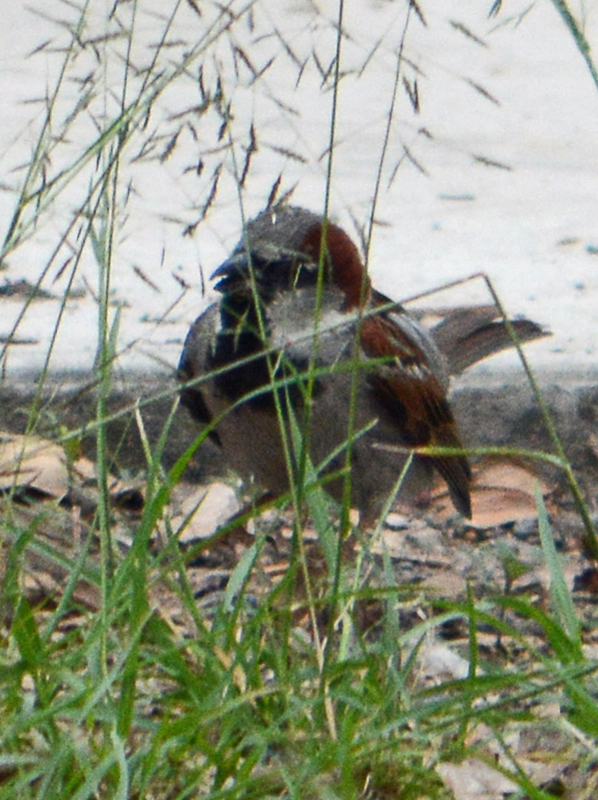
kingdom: Animalia
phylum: Chordata
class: Aves
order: Passeriformes
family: Passeridae
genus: Passer
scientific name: Passer domesticus
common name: House sparrow
